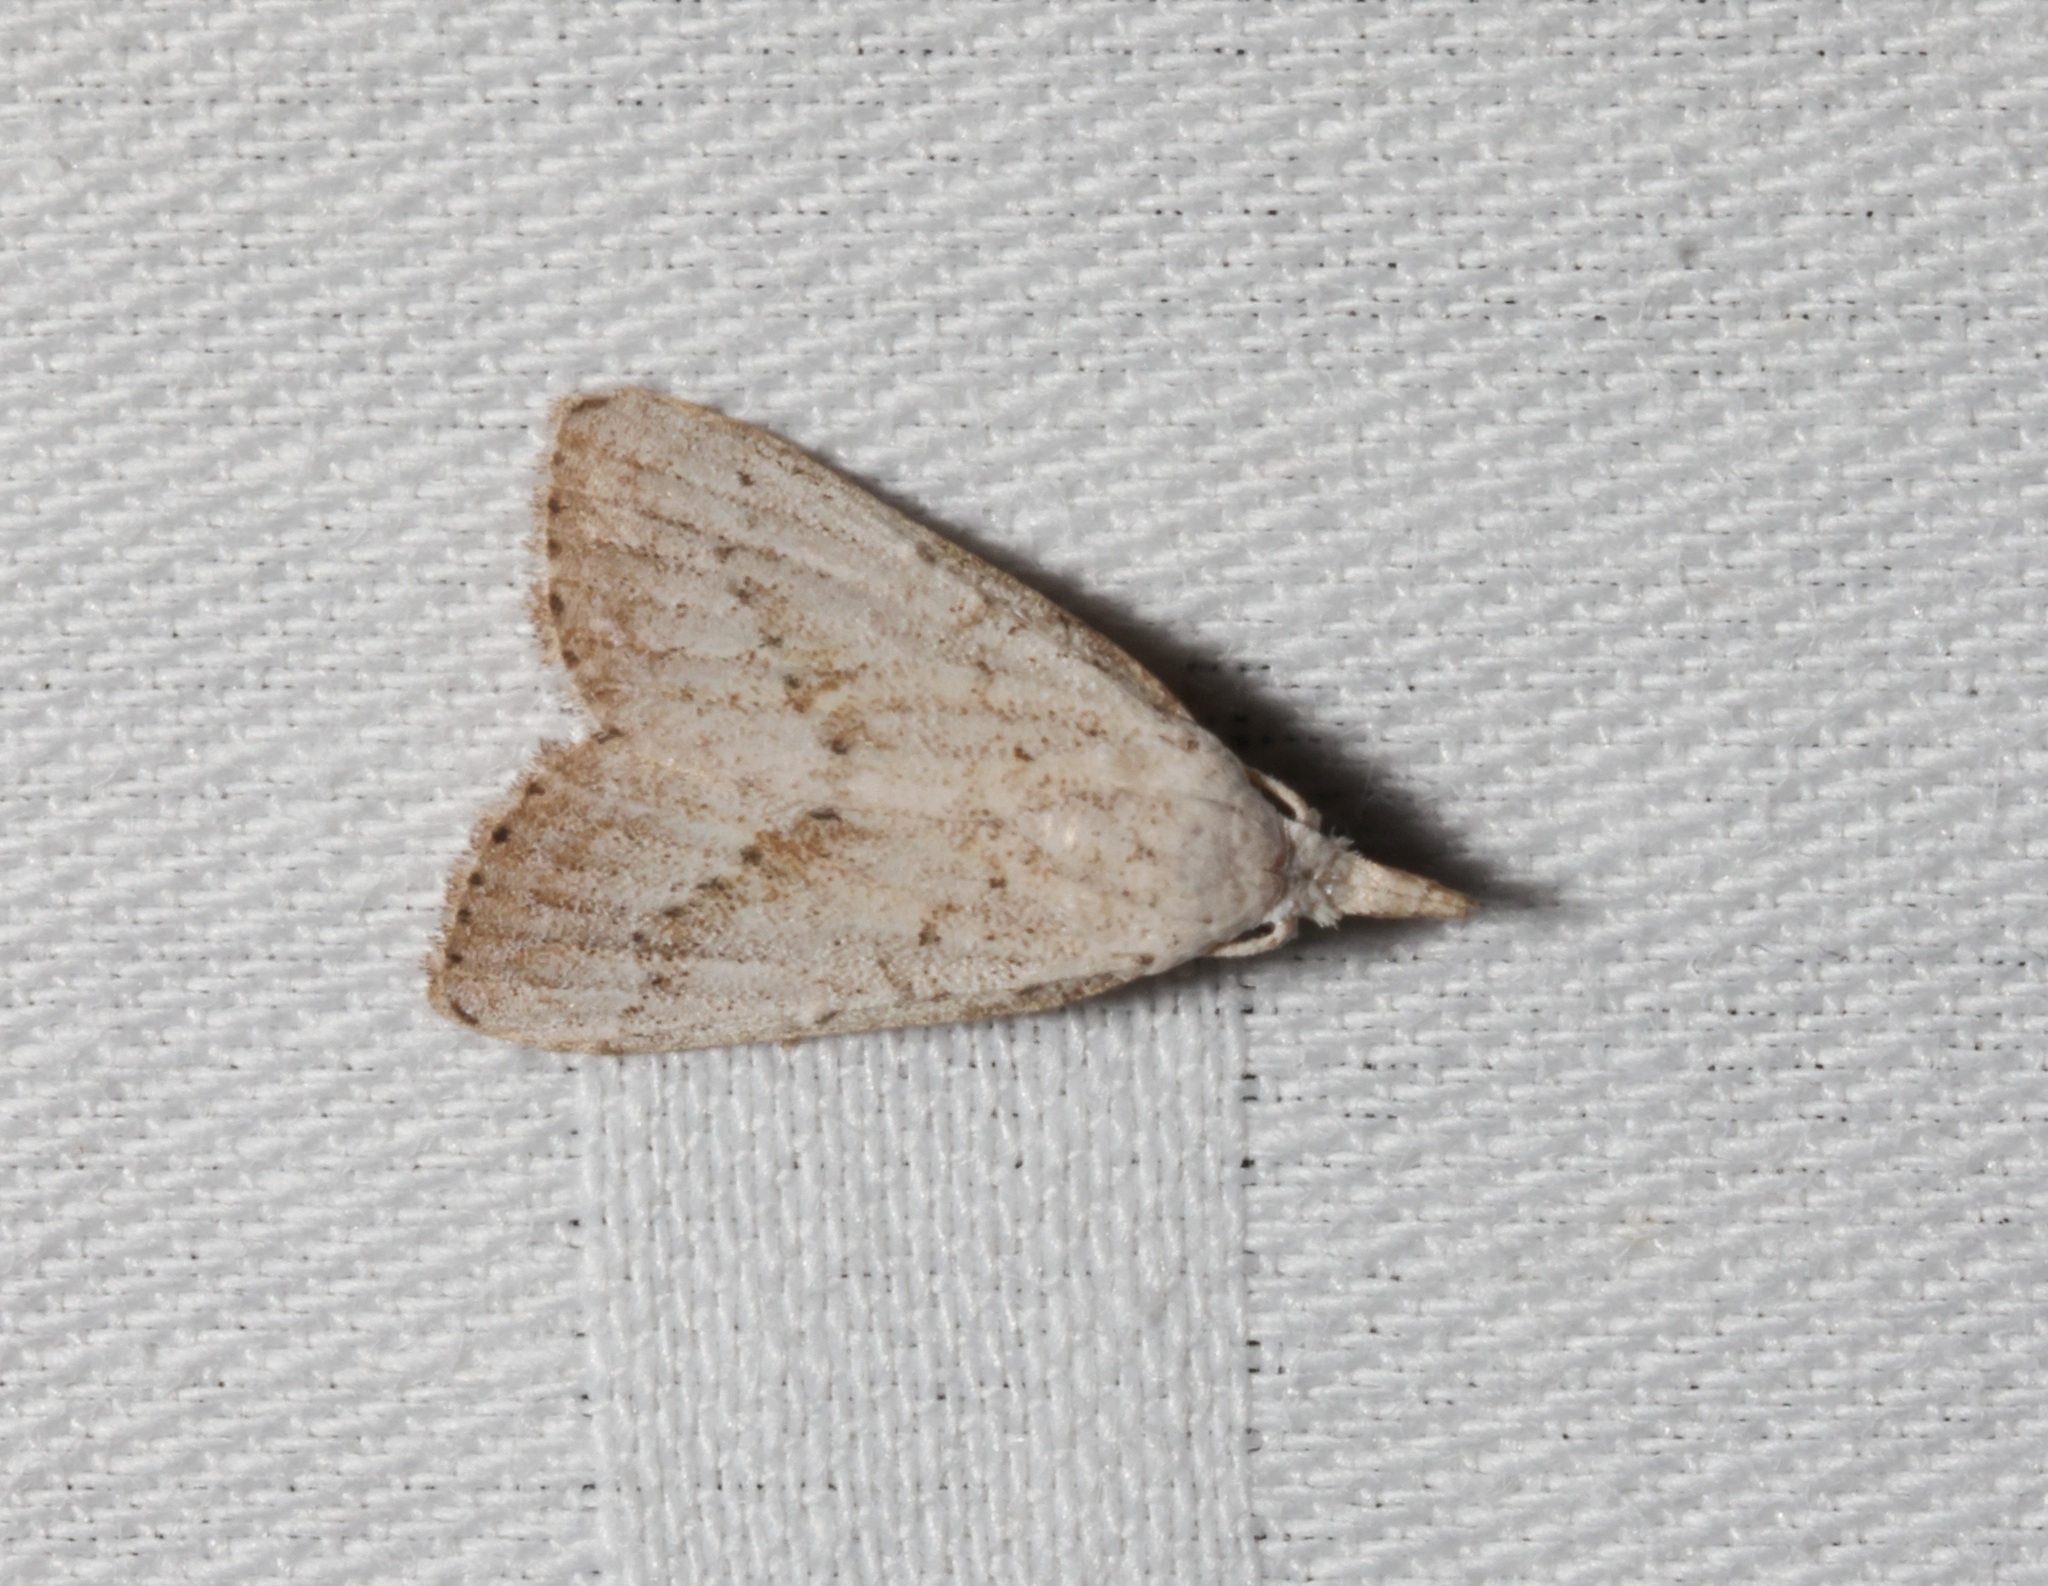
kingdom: Animalia
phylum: Arthropoda
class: Insecta
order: Lepidoptera
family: Nolidae
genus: Meganola
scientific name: Meganola brunellus
